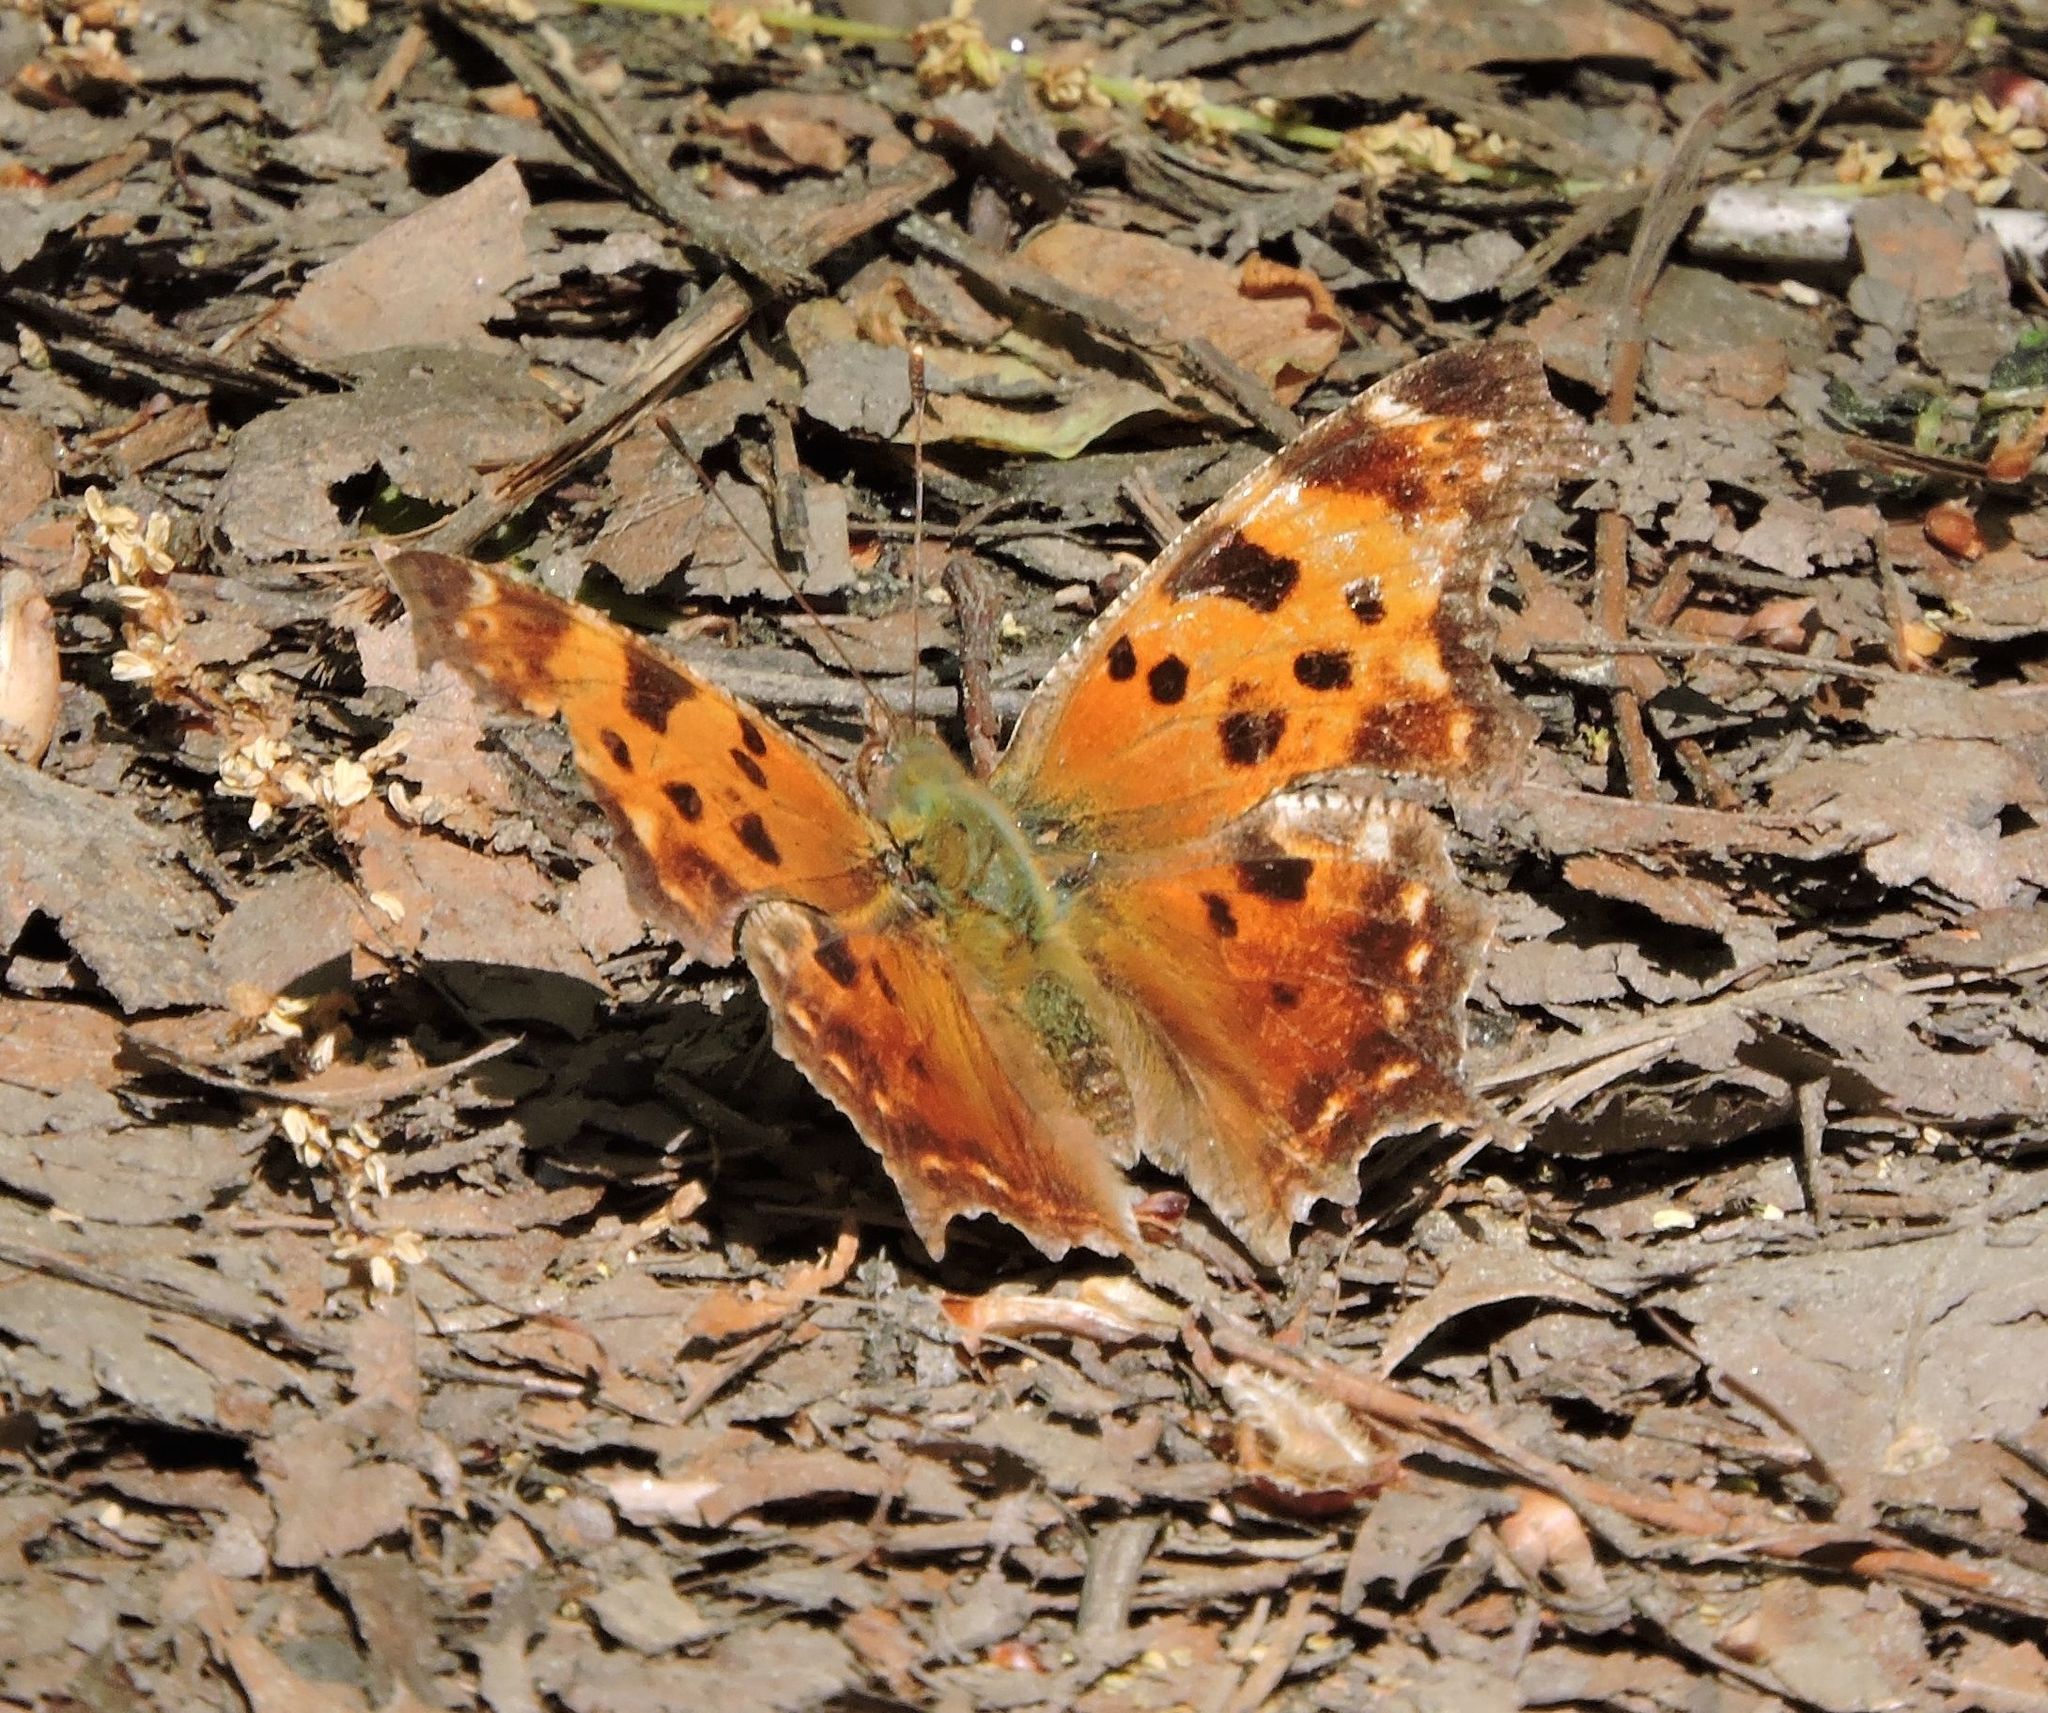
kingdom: Animalia
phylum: Arthropoda
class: Insecta
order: Lepidoptera
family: Nymphalidae
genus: Polygonia
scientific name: Polygonia comma
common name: Eastern comma
